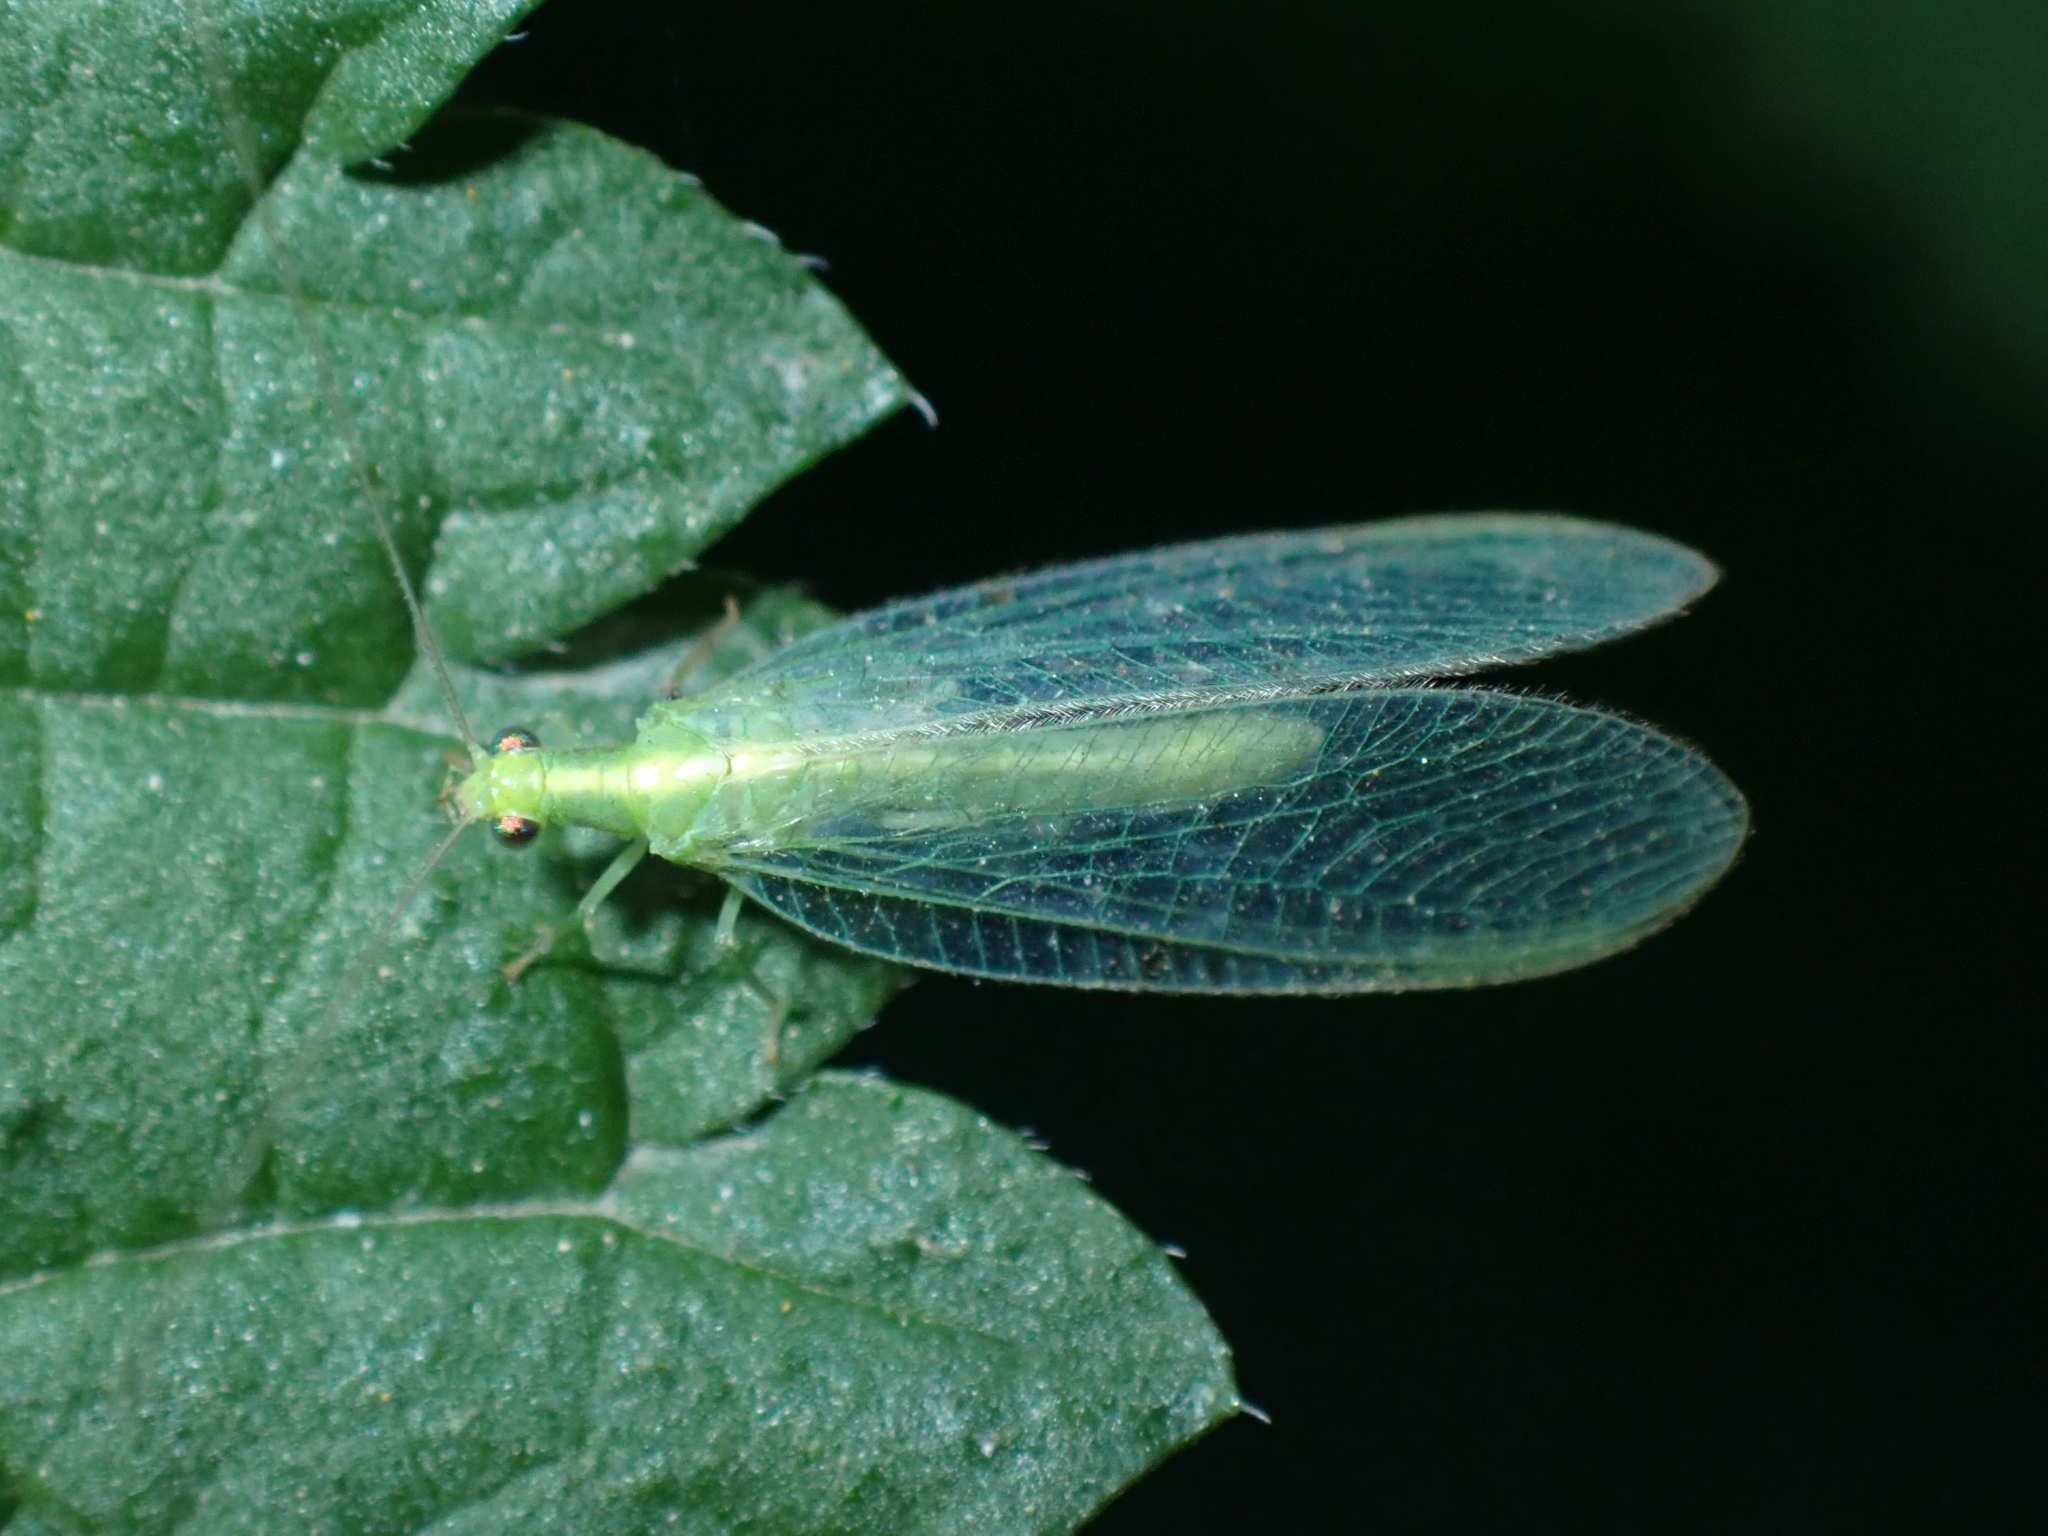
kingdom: Animalia
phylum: Arthropoda
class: Insecta
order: Neuroptera
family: Chrysopidae
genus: Chrysoperla
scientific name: Chrysoperla mutata
